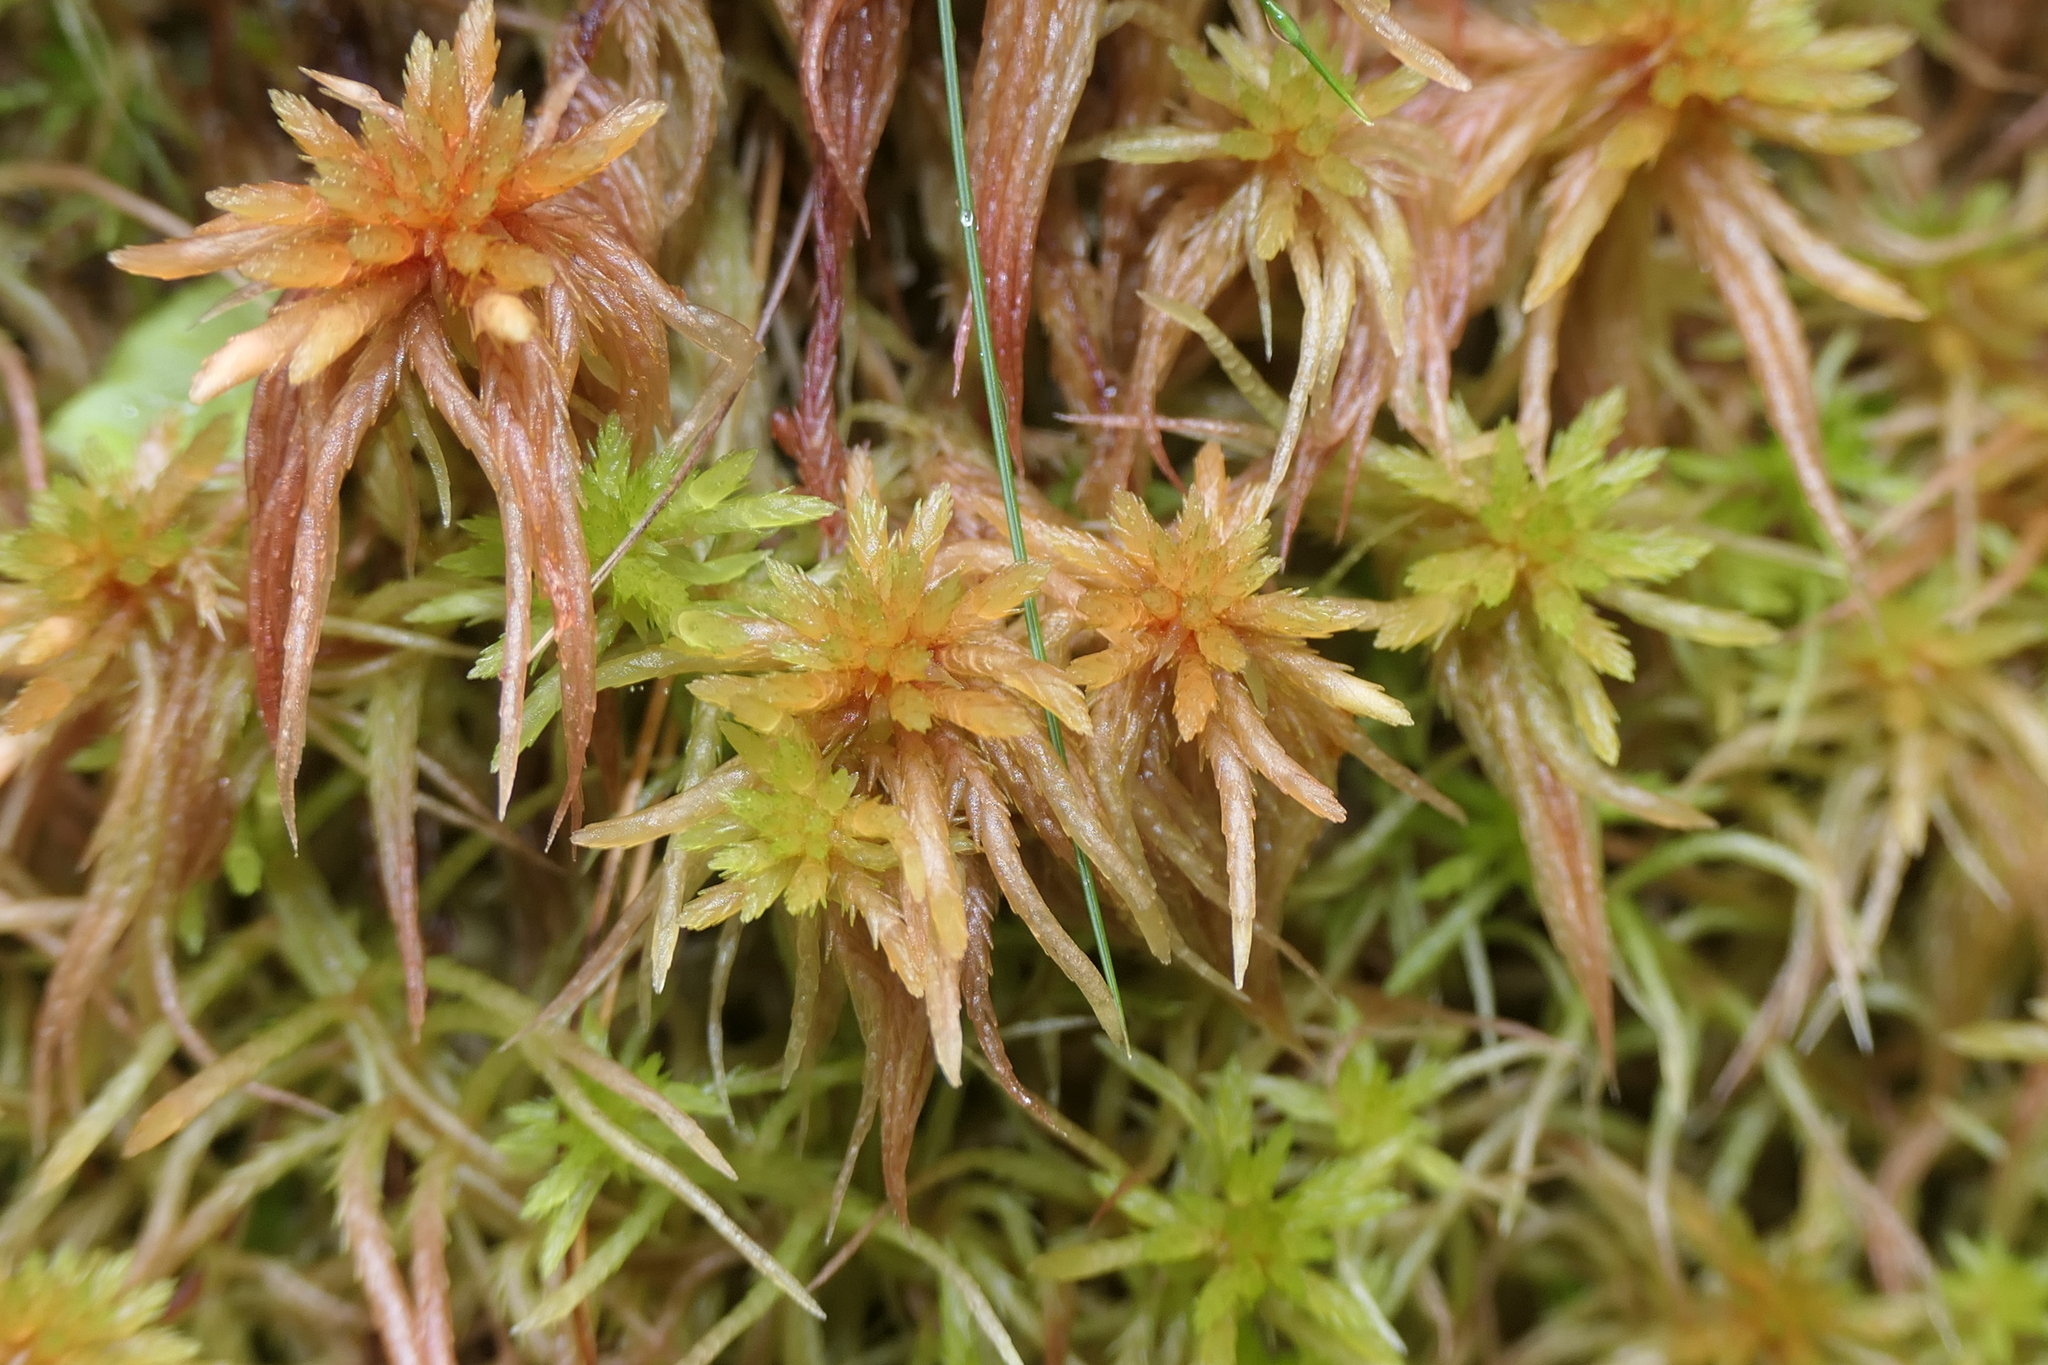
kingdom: Plantae
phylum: Bryophyta
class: Sphagnopsida
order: Sphagnales
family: Sphagnaceae
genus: Sphagnum
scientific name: Sphagnum subnitens
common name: Lustrous bog-moss
